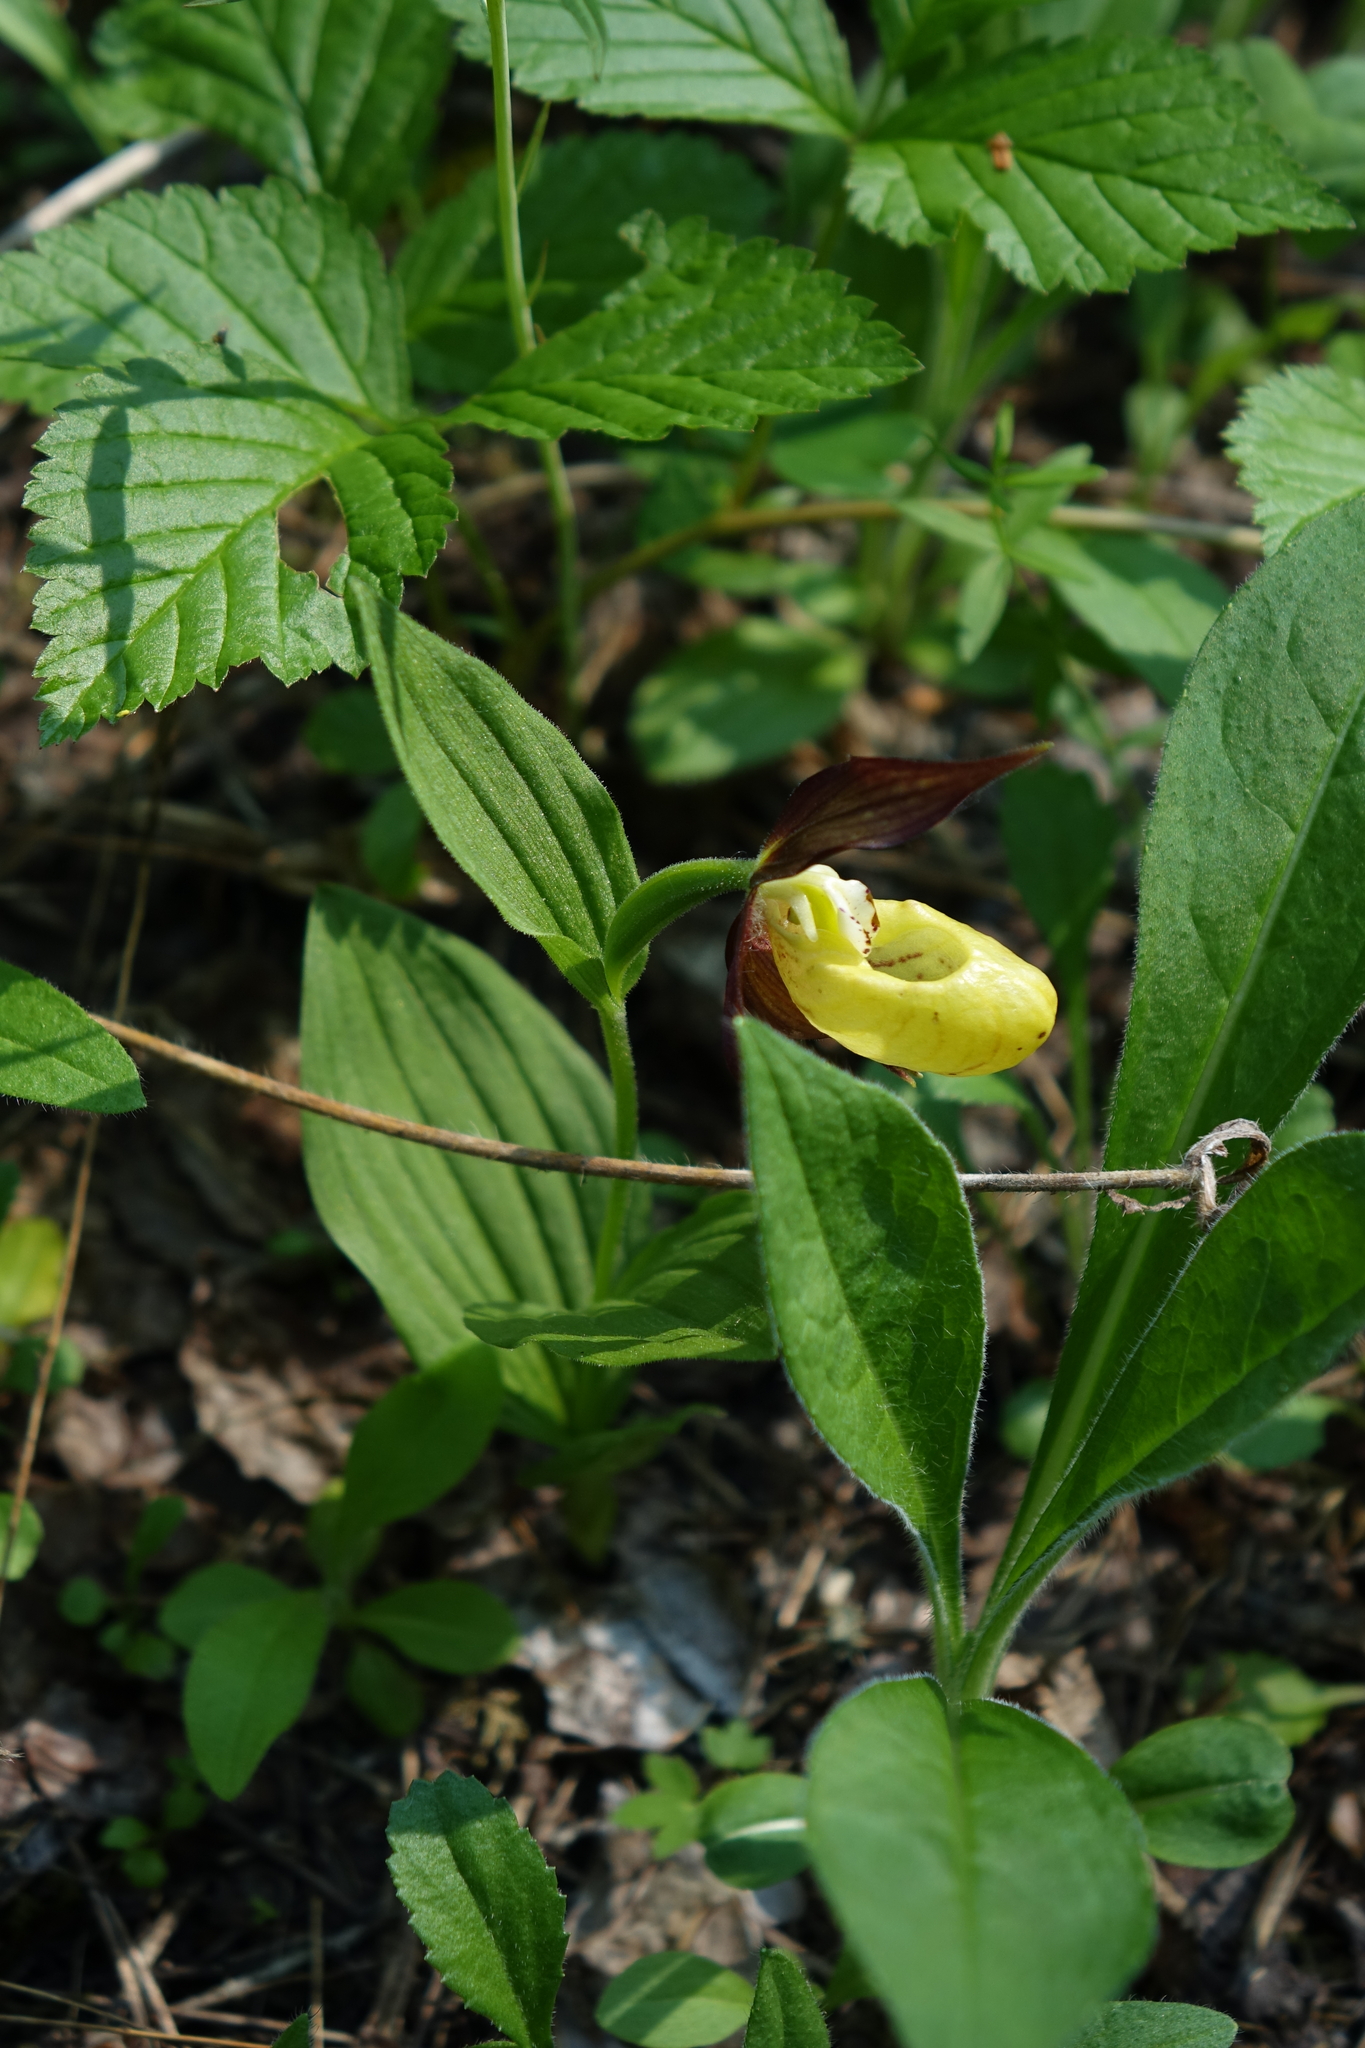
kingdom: Plantae
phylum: Tracheophyta
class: Liliopsida
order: Asparagales
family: Orchidaceae
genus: Cypripedium
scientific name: Cypripedium calceolus
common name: Lady's-slipper
